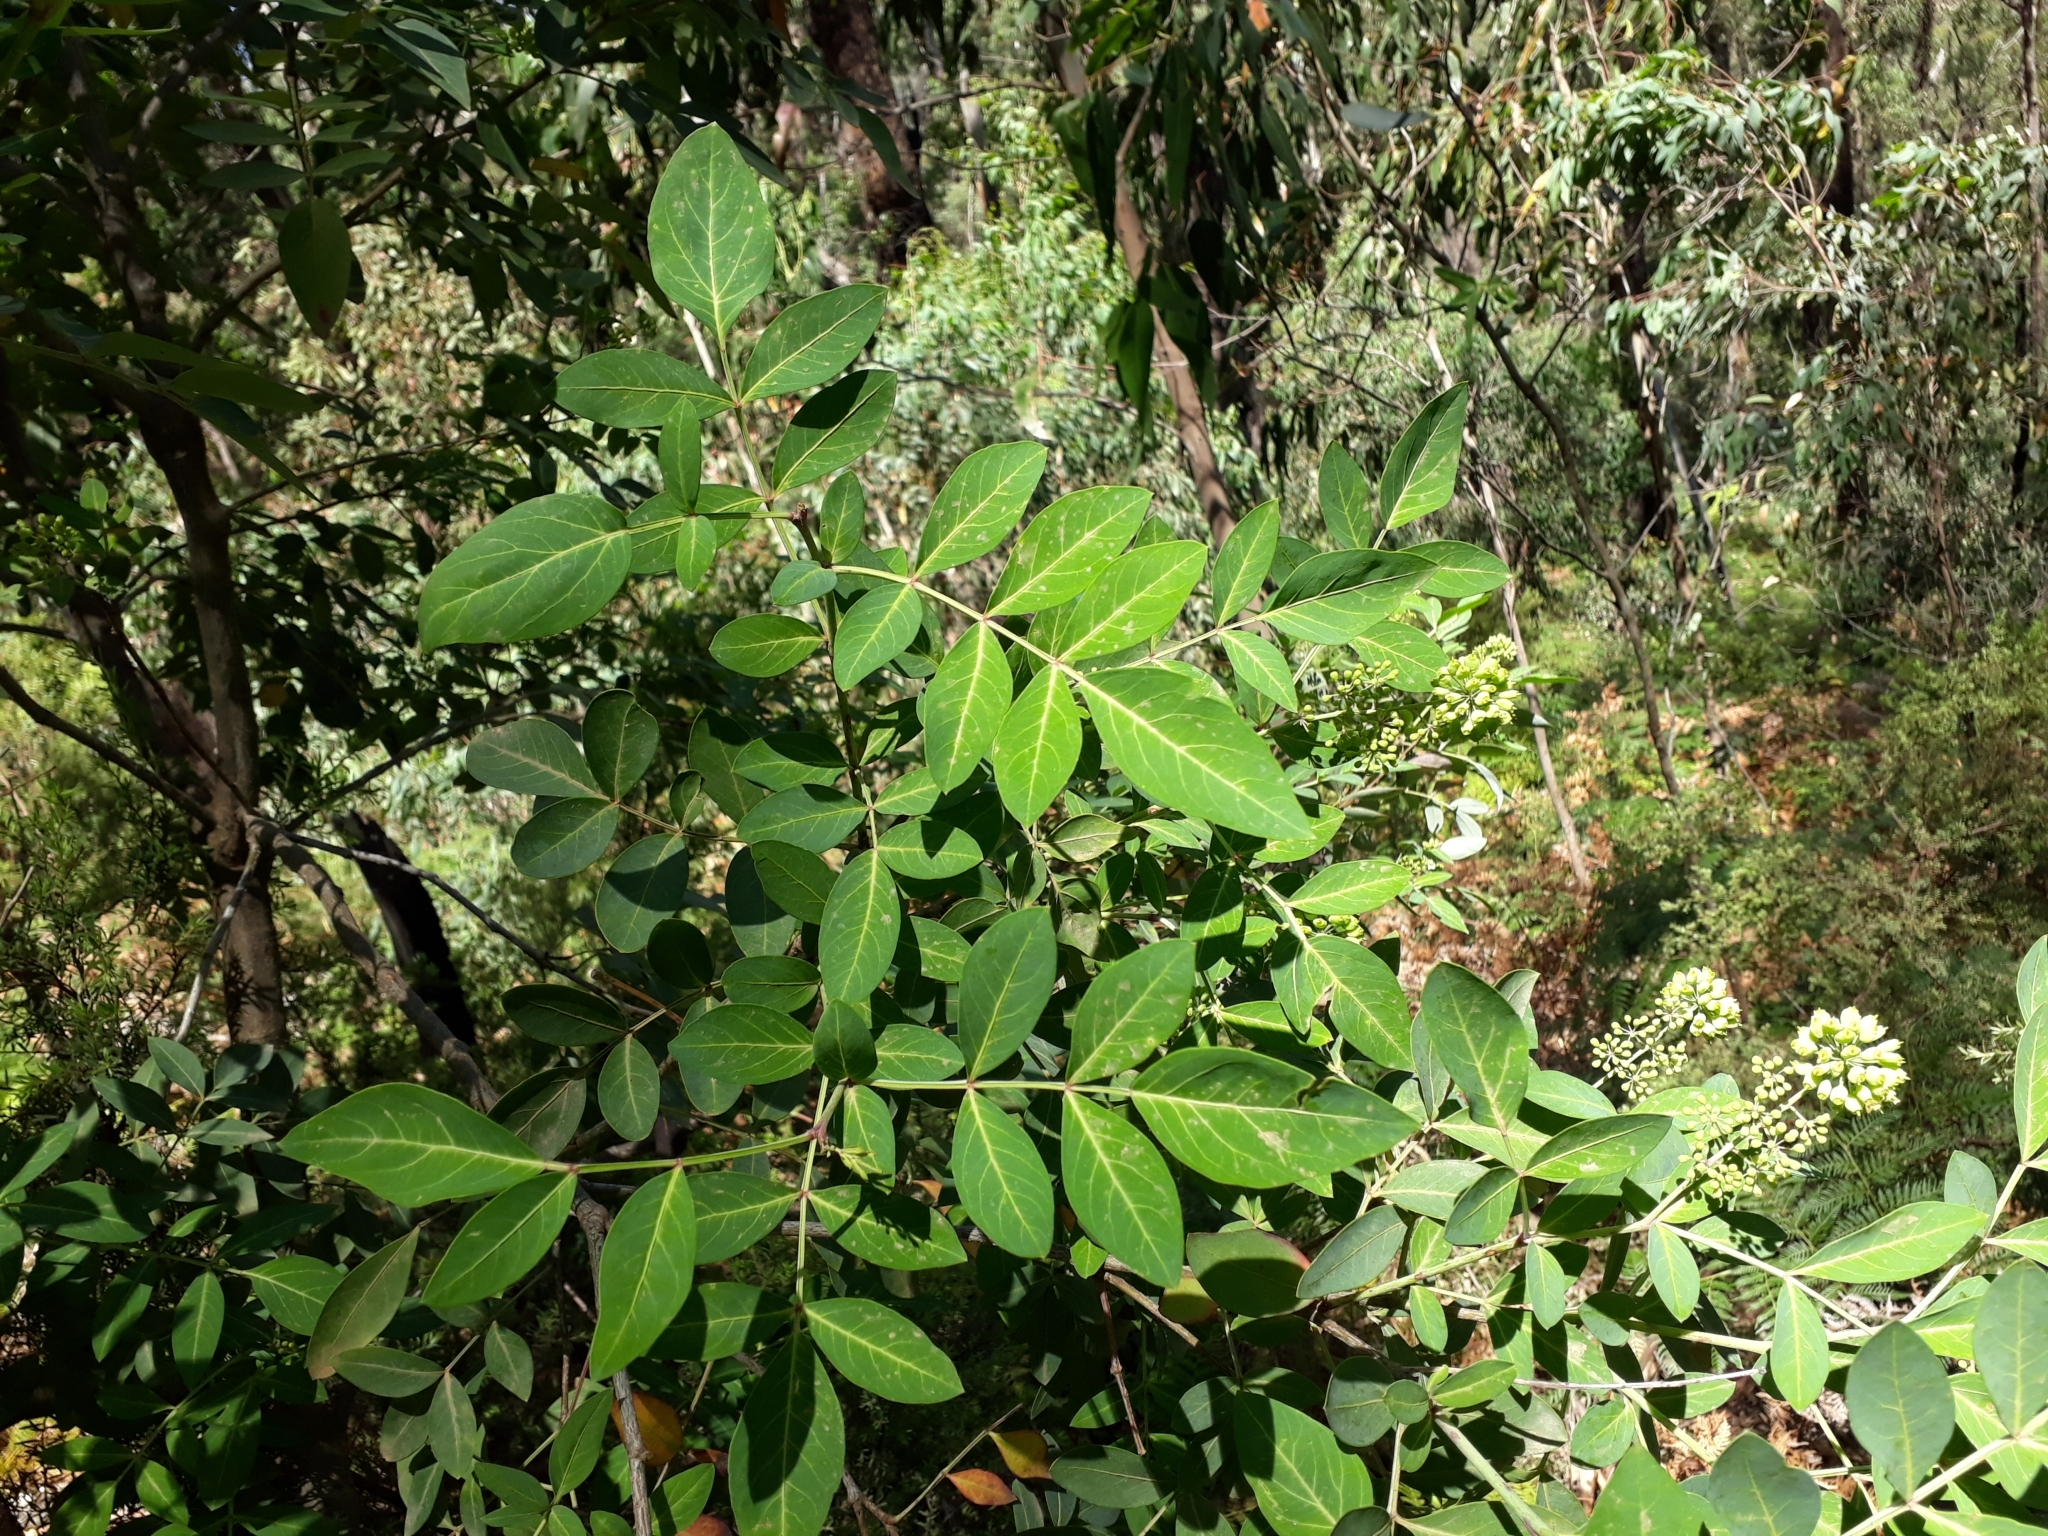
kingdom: Plantae
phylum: Tracheophyta
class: Magnoliopsida
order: Apiales
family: Araliaceae
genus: Polyscias
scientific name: Polyscias sambucifolia
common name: Elderberry-ash
